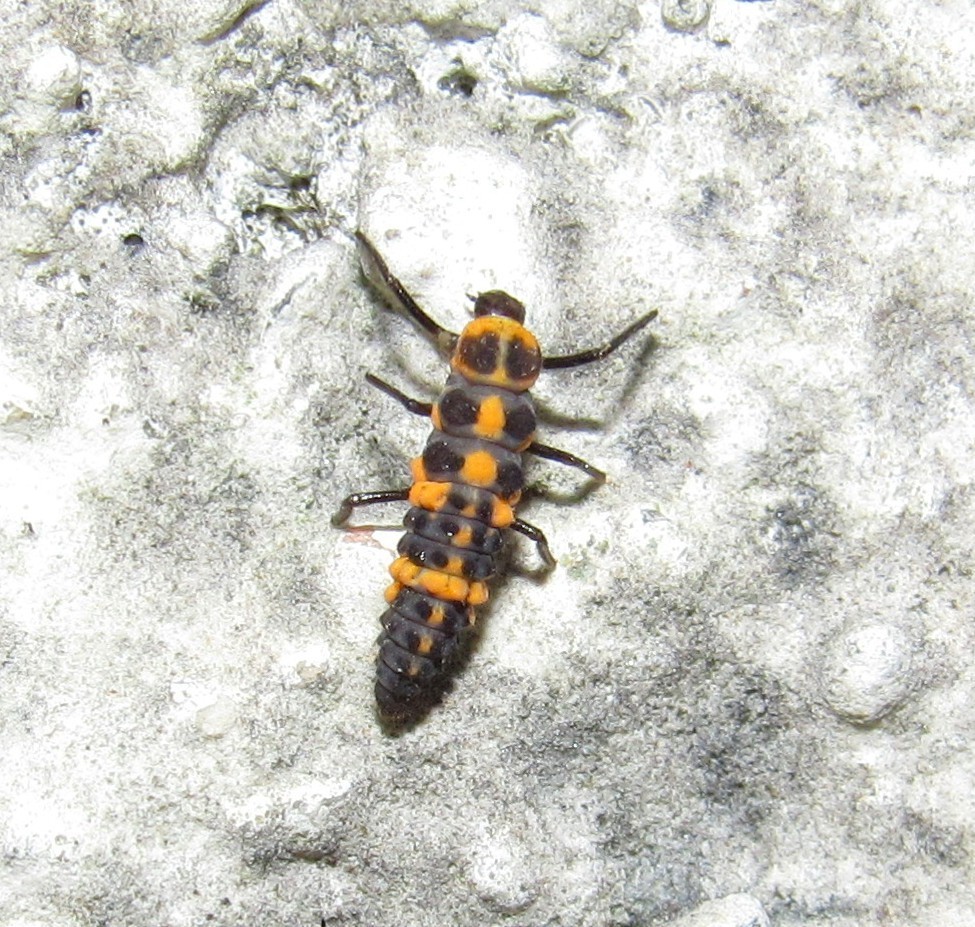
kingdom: Animalia
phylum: Arthropoda
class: Insecta
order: Coleoptera
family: Coccinellidae
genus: Cycloneda
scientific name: Cycloneda sanguinea
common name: Ladybird beetle
